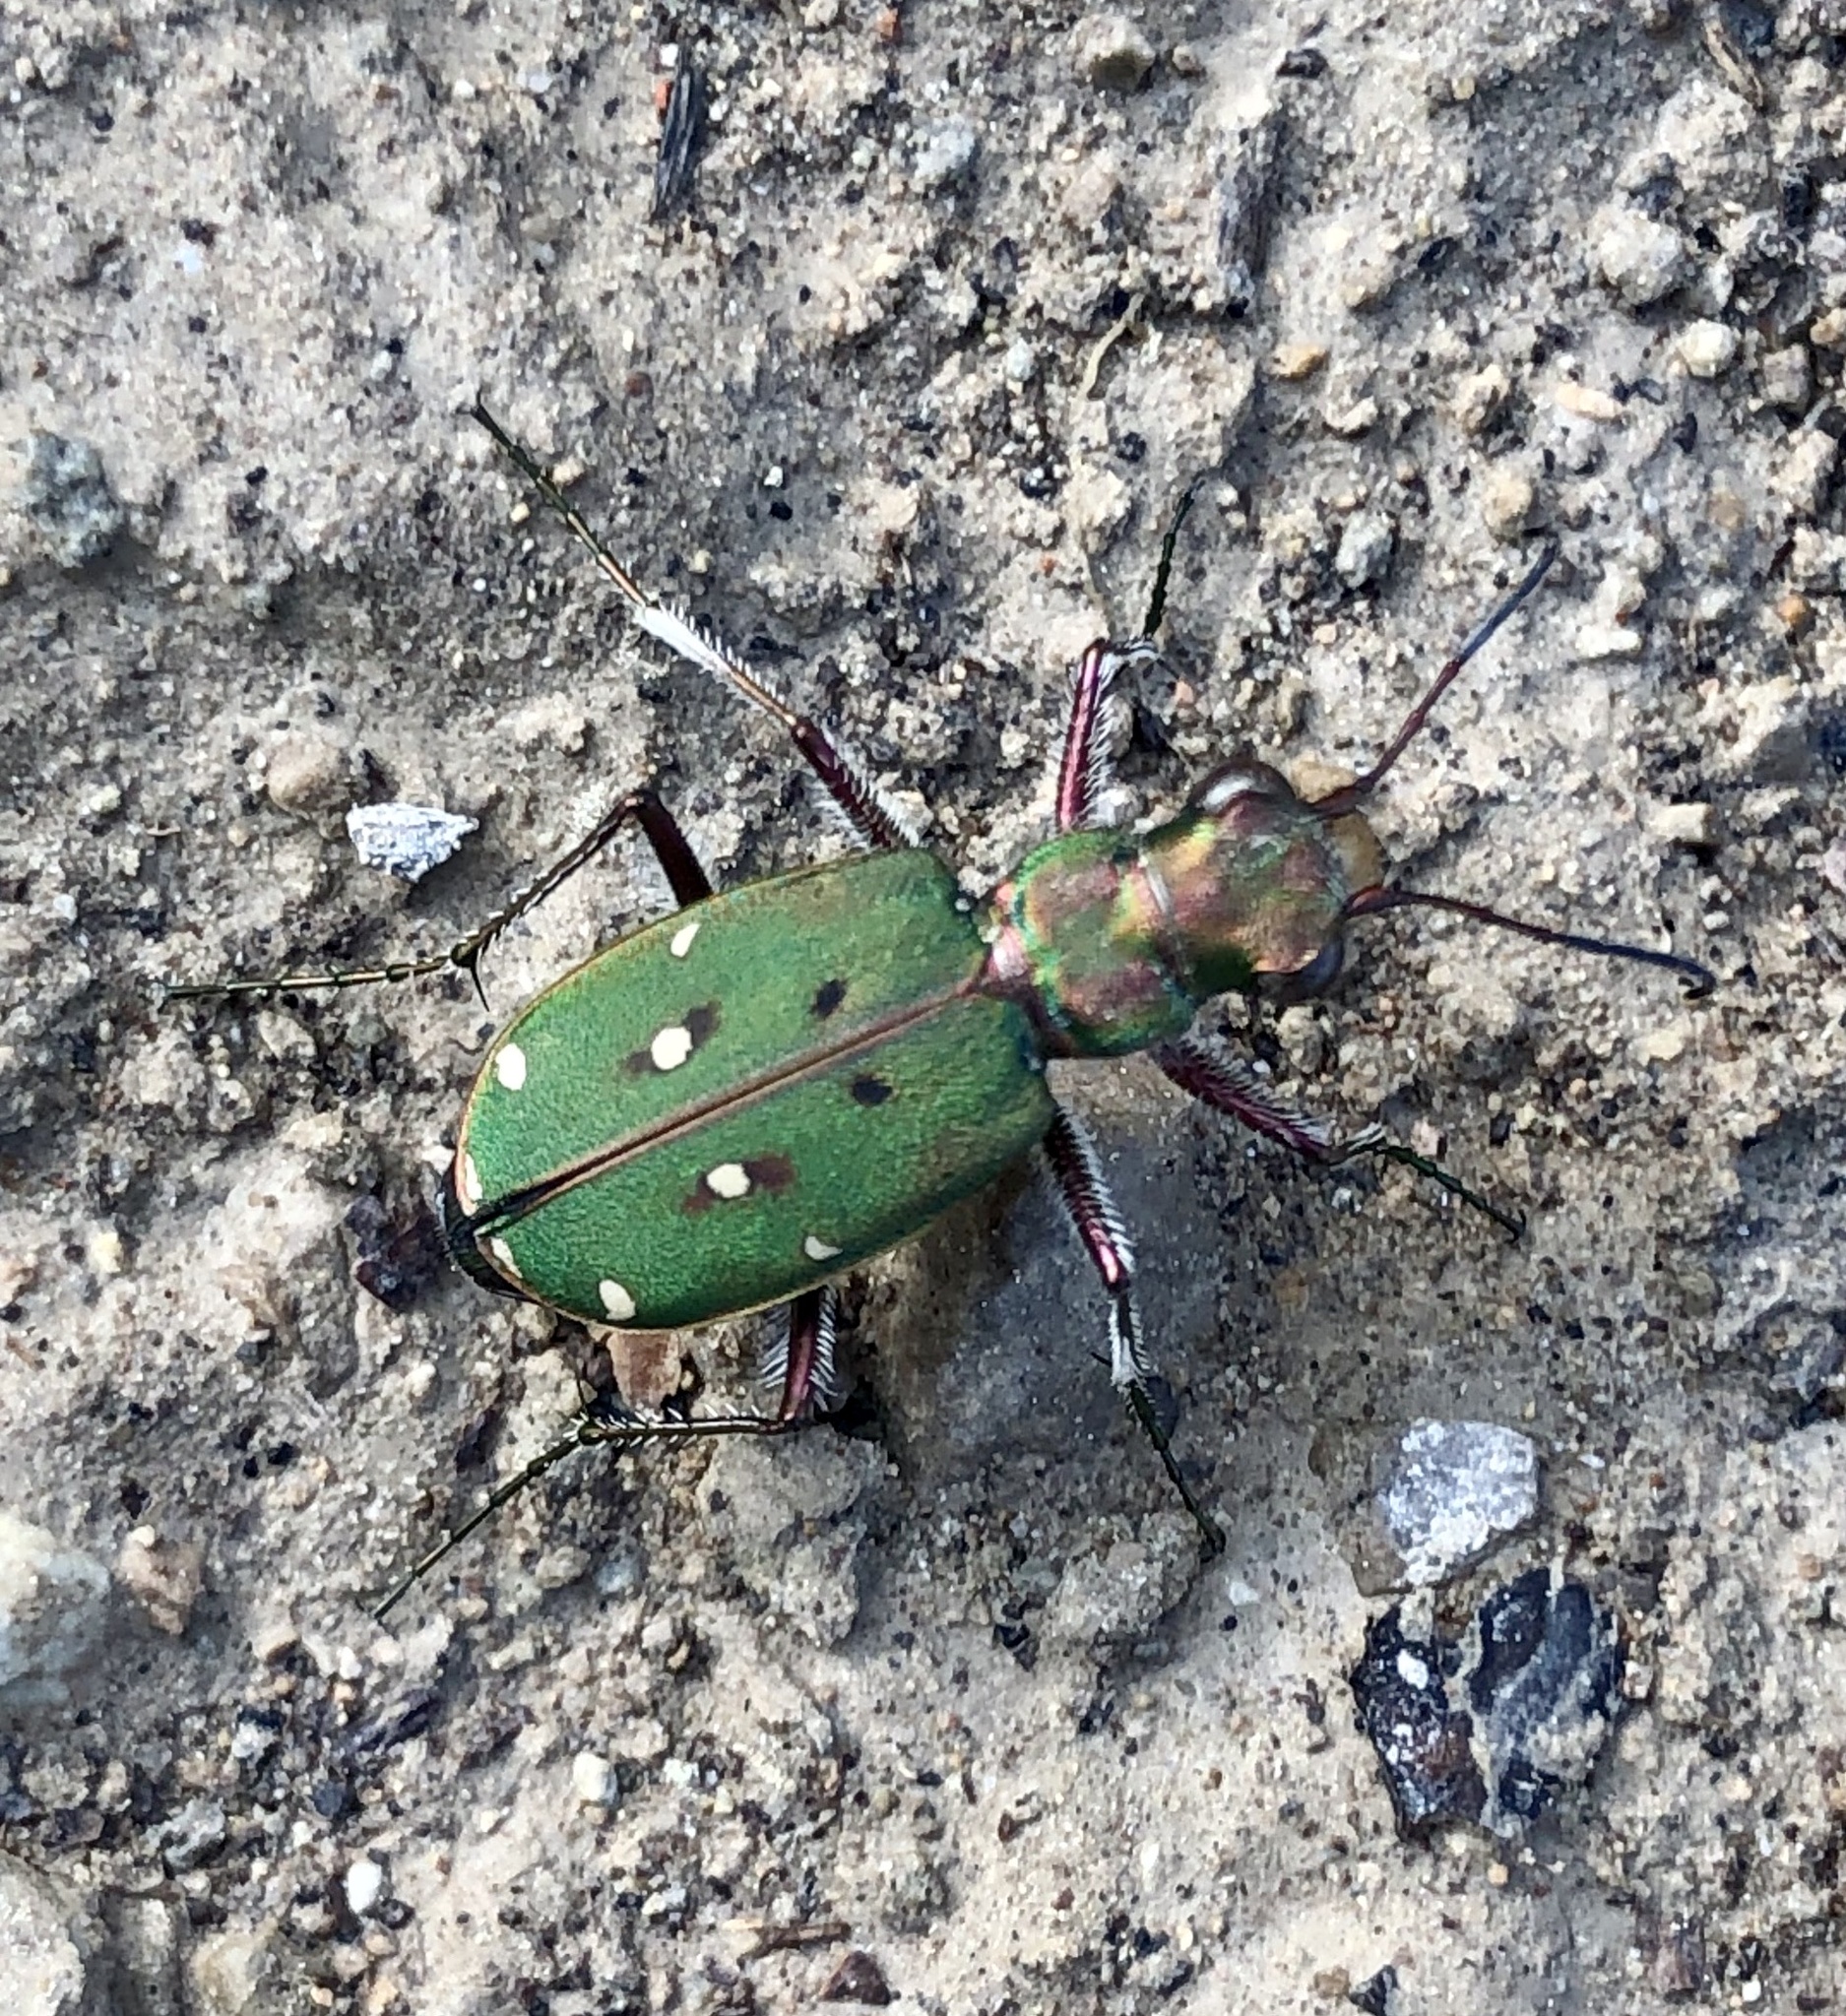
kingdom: Animalia
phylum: Arthropoda
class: Insecta
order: Coleoptera
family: Carabidae
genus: Cicindela
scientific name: Cicindela campestris
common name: Common tiger beetle
